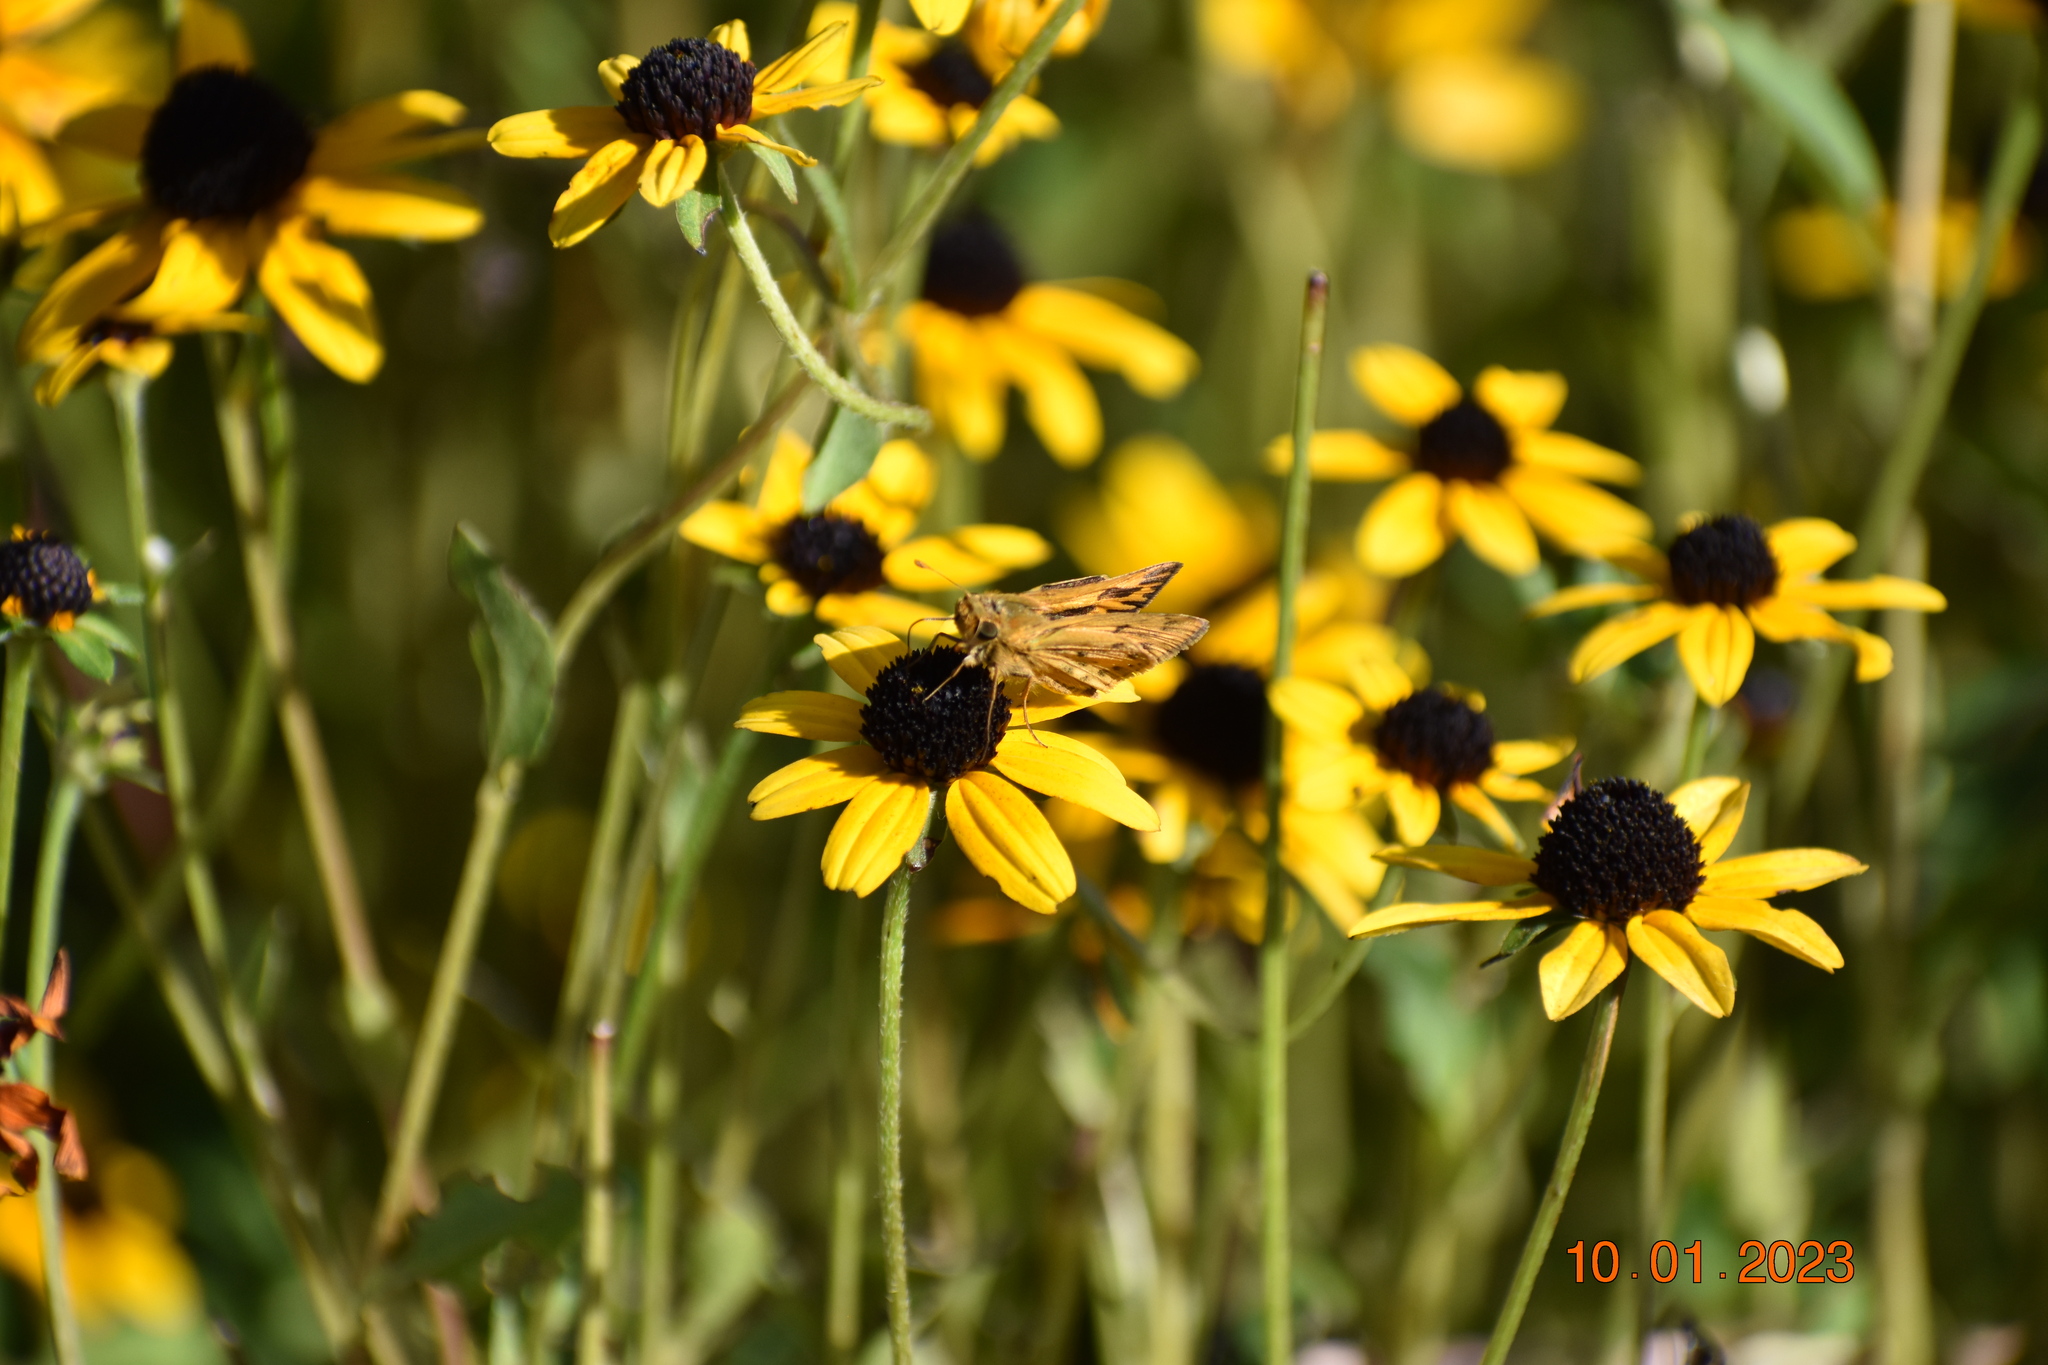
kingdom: Animalia
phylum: Arthropoda
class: Insecta
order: Lepidoptera
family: Hesperiidae
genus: Hylephila
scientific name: Hylephila phyleus
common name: Fiery skipper
